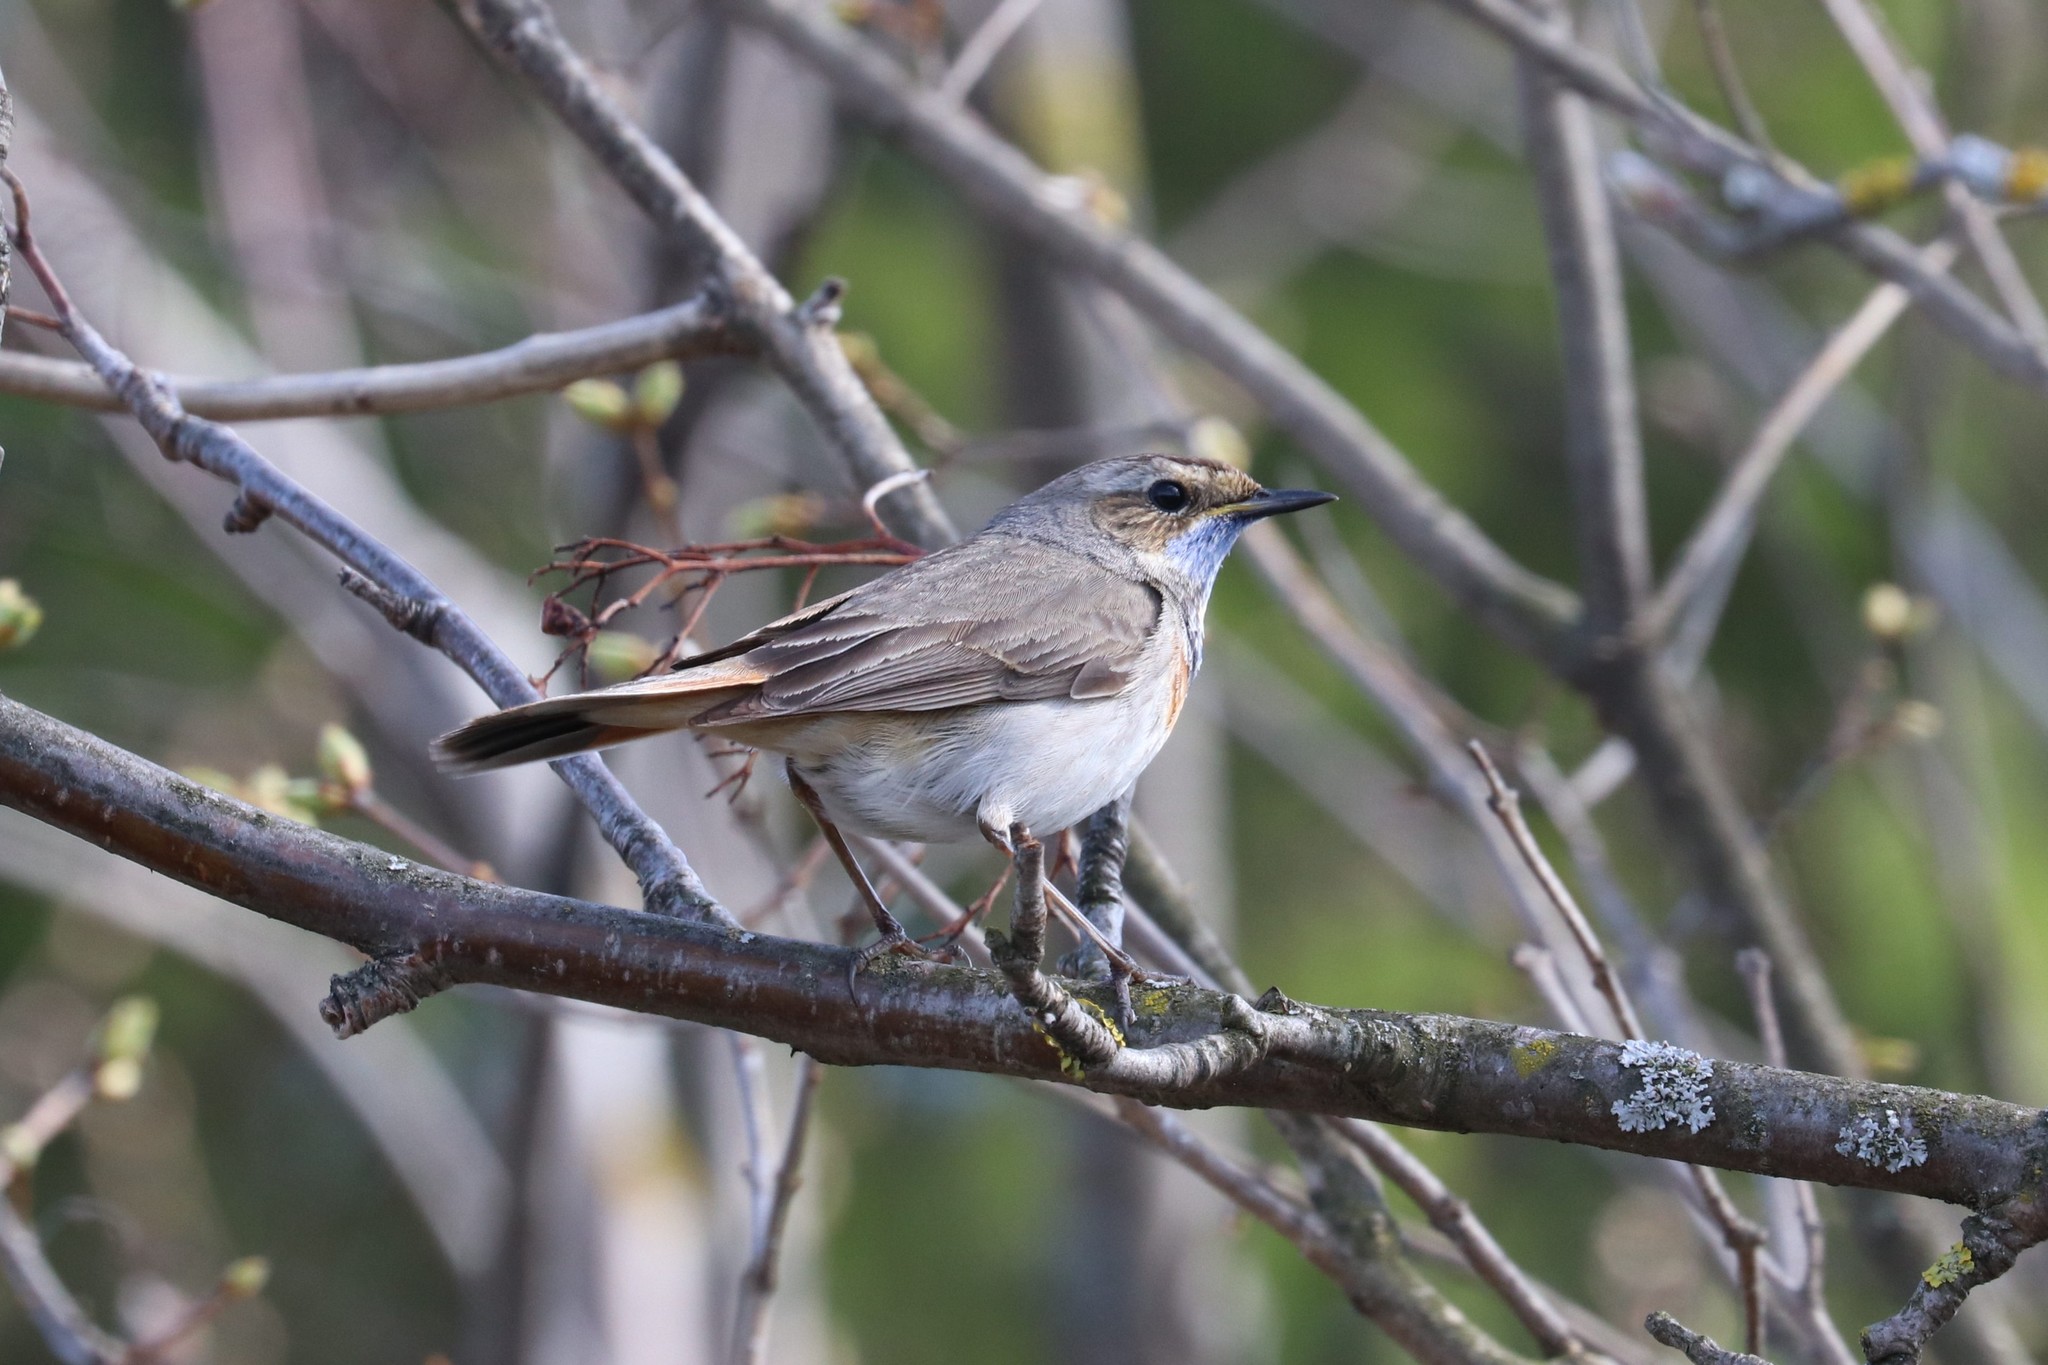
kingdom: Animalia
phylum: Chordata
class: Aves
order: Passeriformes
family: Muscicapidae
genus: Luscinia
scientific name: Luscinia svecica
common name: Bluethroat
